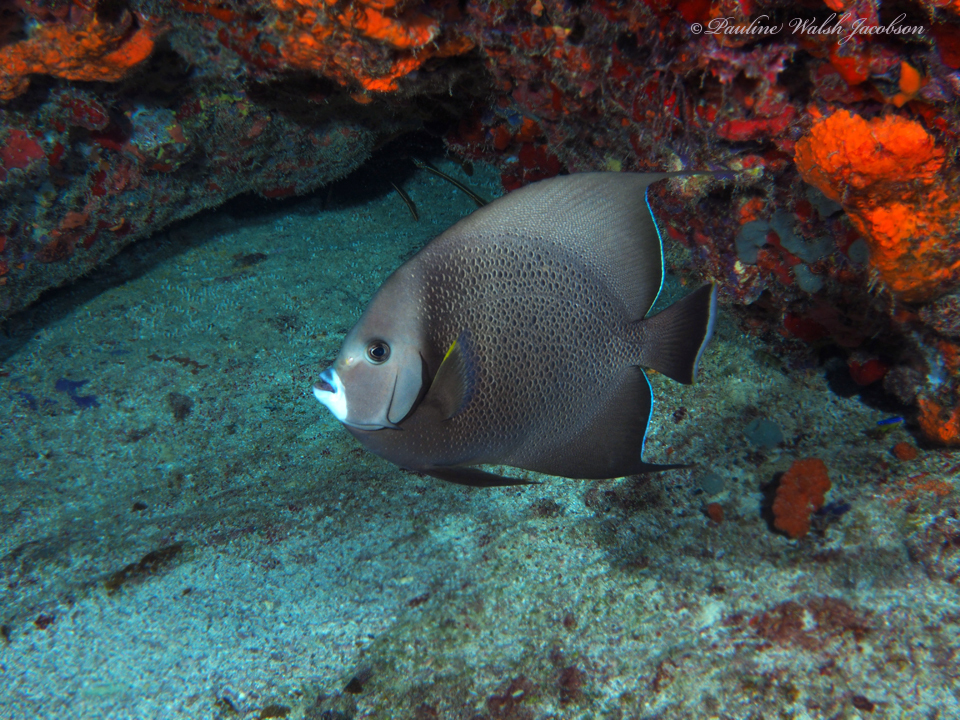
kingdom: Animalia
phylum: Chordata
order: Perciformes
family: Pomacanthidae
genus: Pomacanthus
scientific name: Pomacanthus arcuatus
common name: Gray angelfish
